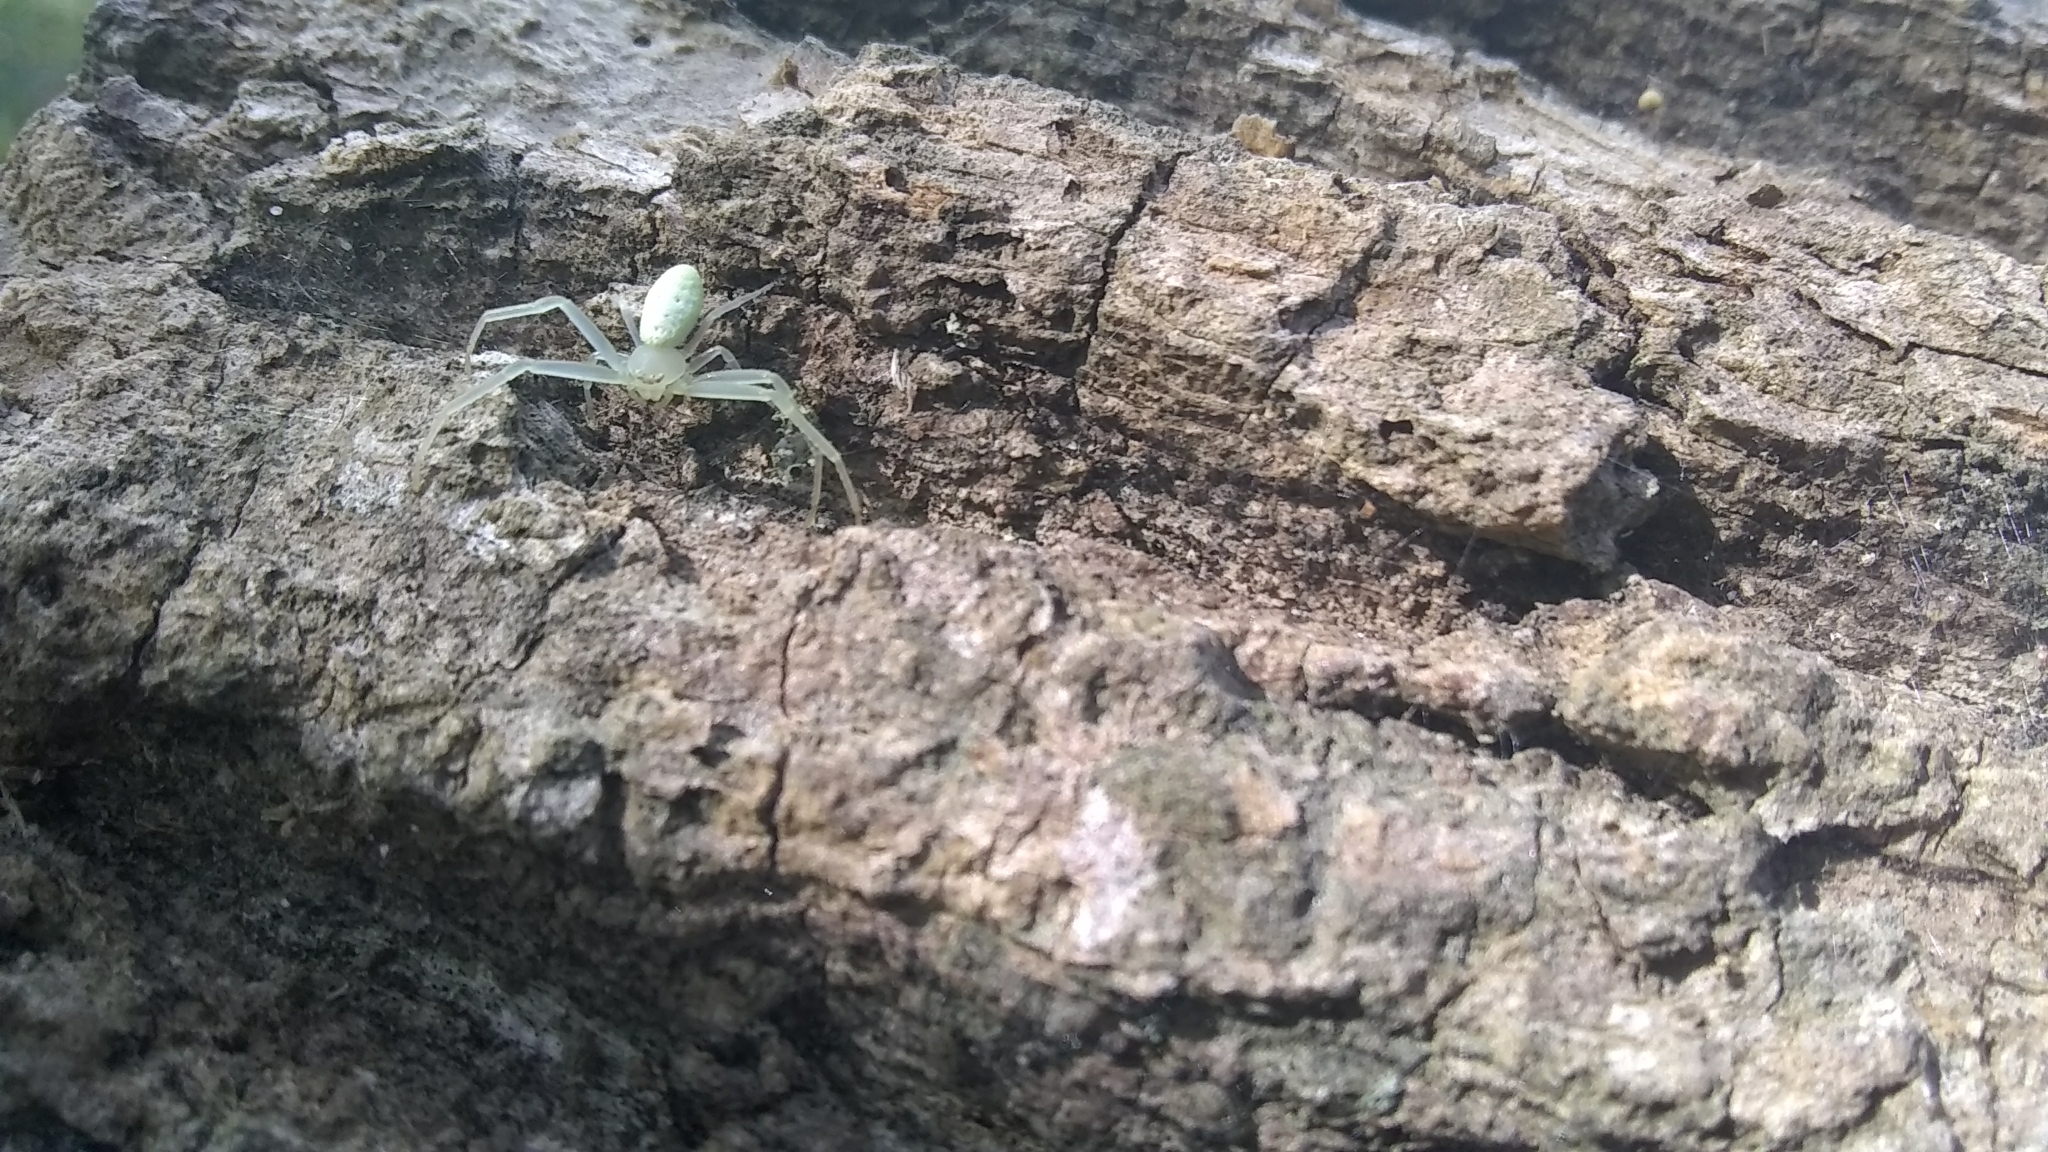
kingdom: Animalia
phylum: Arthropoda
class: Arachnida
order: Araneae
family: Thomisidae
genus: Misumessus
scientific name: Misumessus oblongus
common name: American green crab spider
